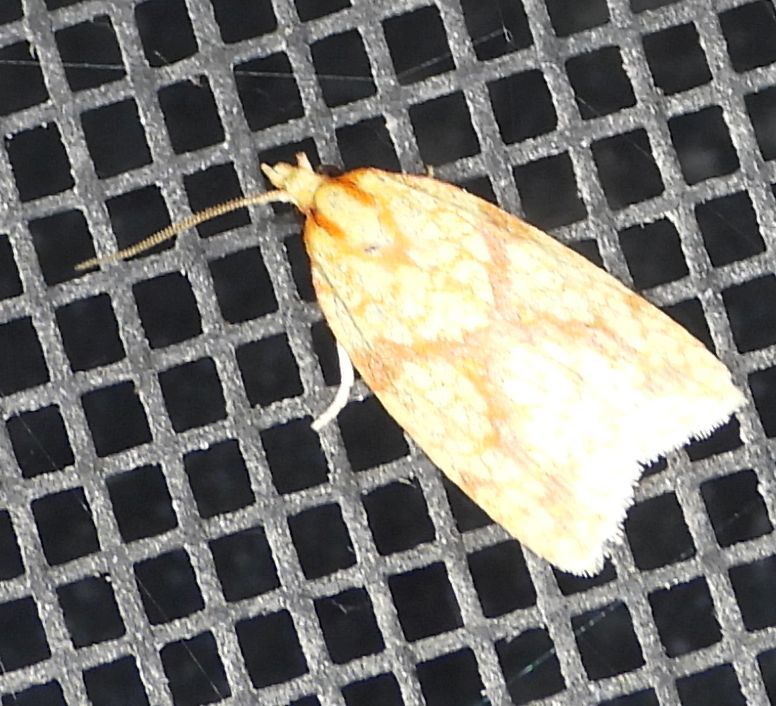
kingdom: Animalia
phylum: Arthropoda
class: Insecta
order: Lepidoptera
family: Tortricidae
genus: Sparganothis
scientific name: Sparganothis sulfureana
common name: Sparganothis fruitworm moth
